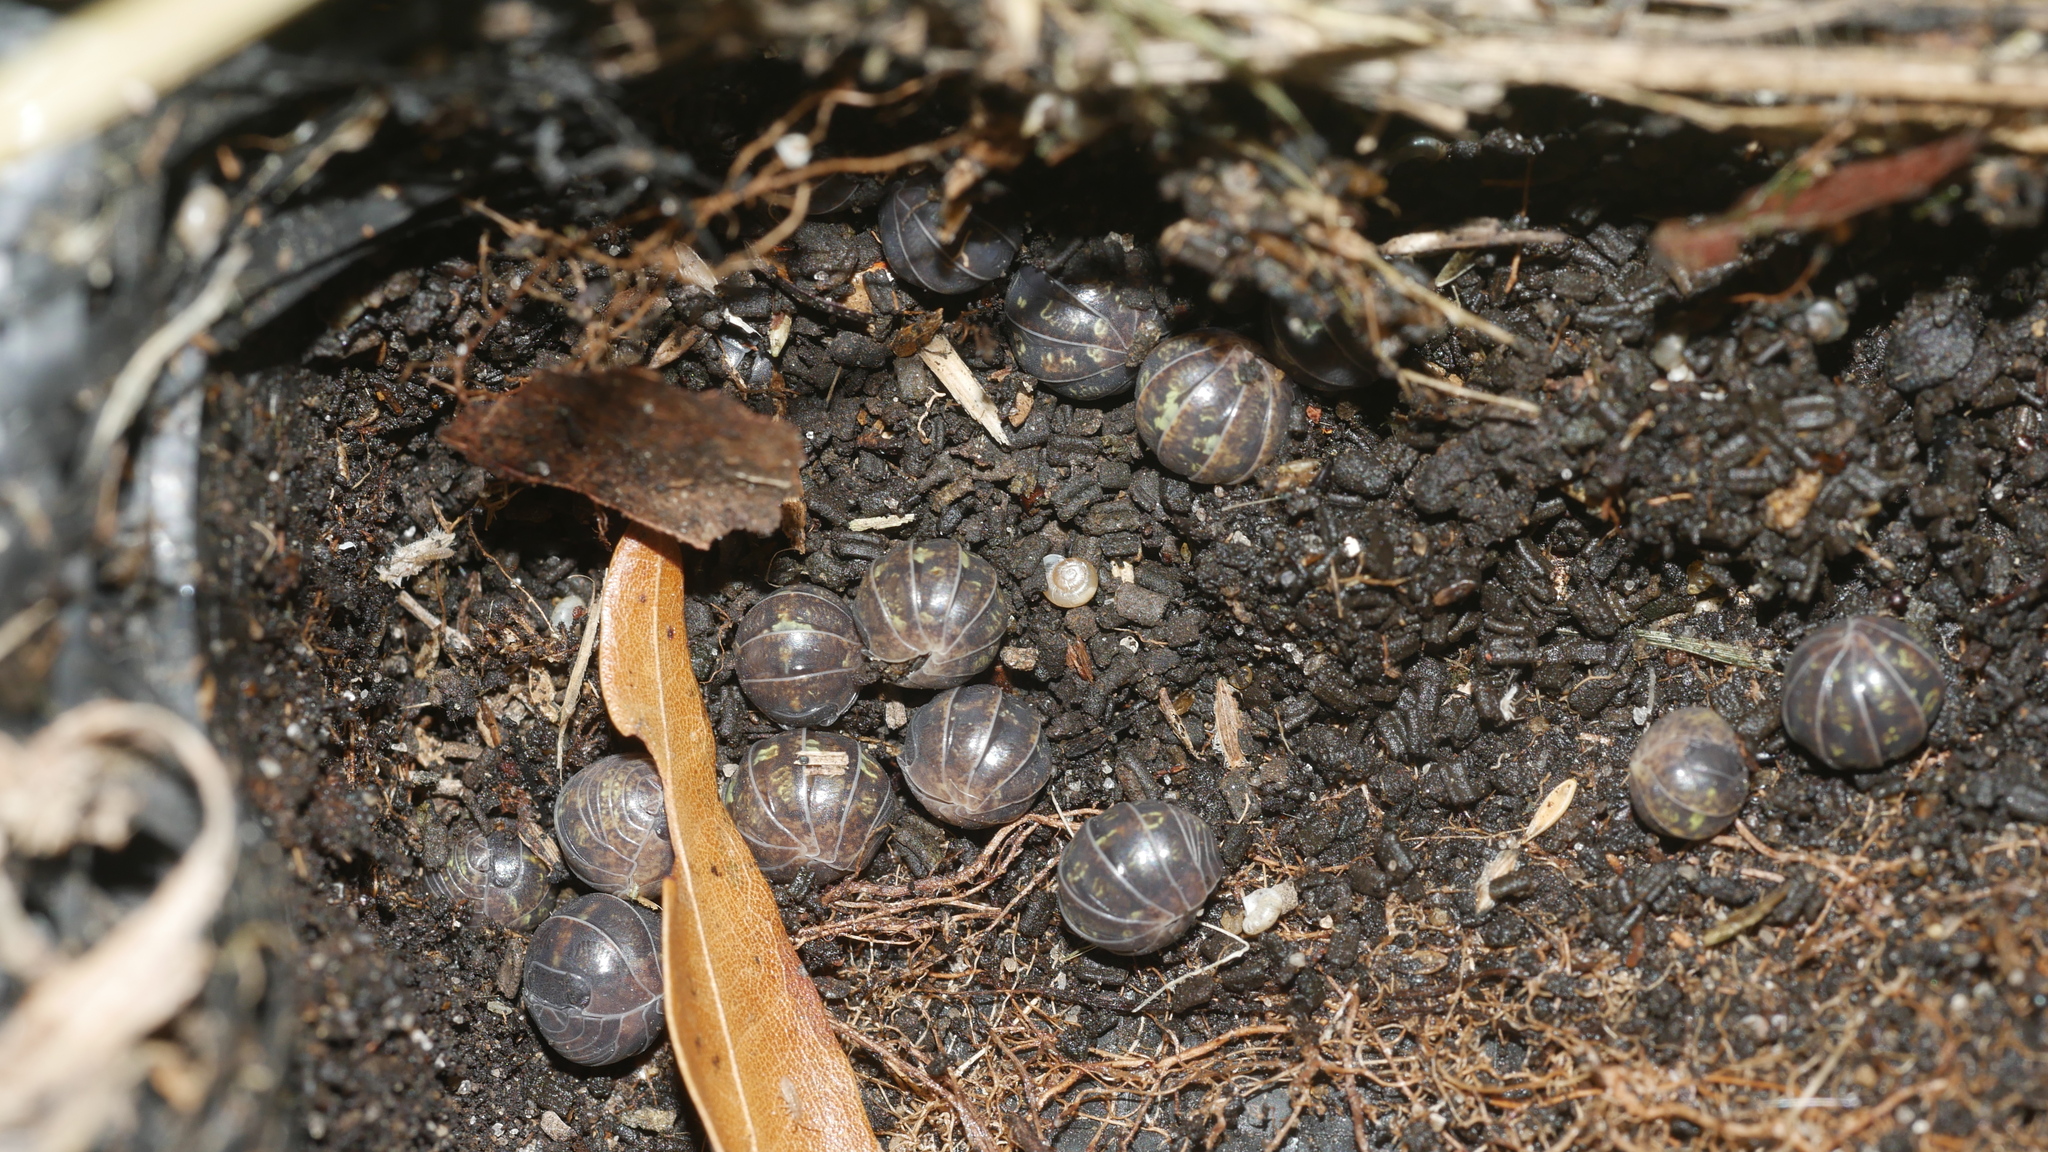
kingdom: Animalia
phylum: Arthropoda
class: Malacostraca
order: Isopoda
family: Armadillidiidae
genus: Armadillidium
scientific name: Armadillidium vulgare
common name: Common pill woodlouse
